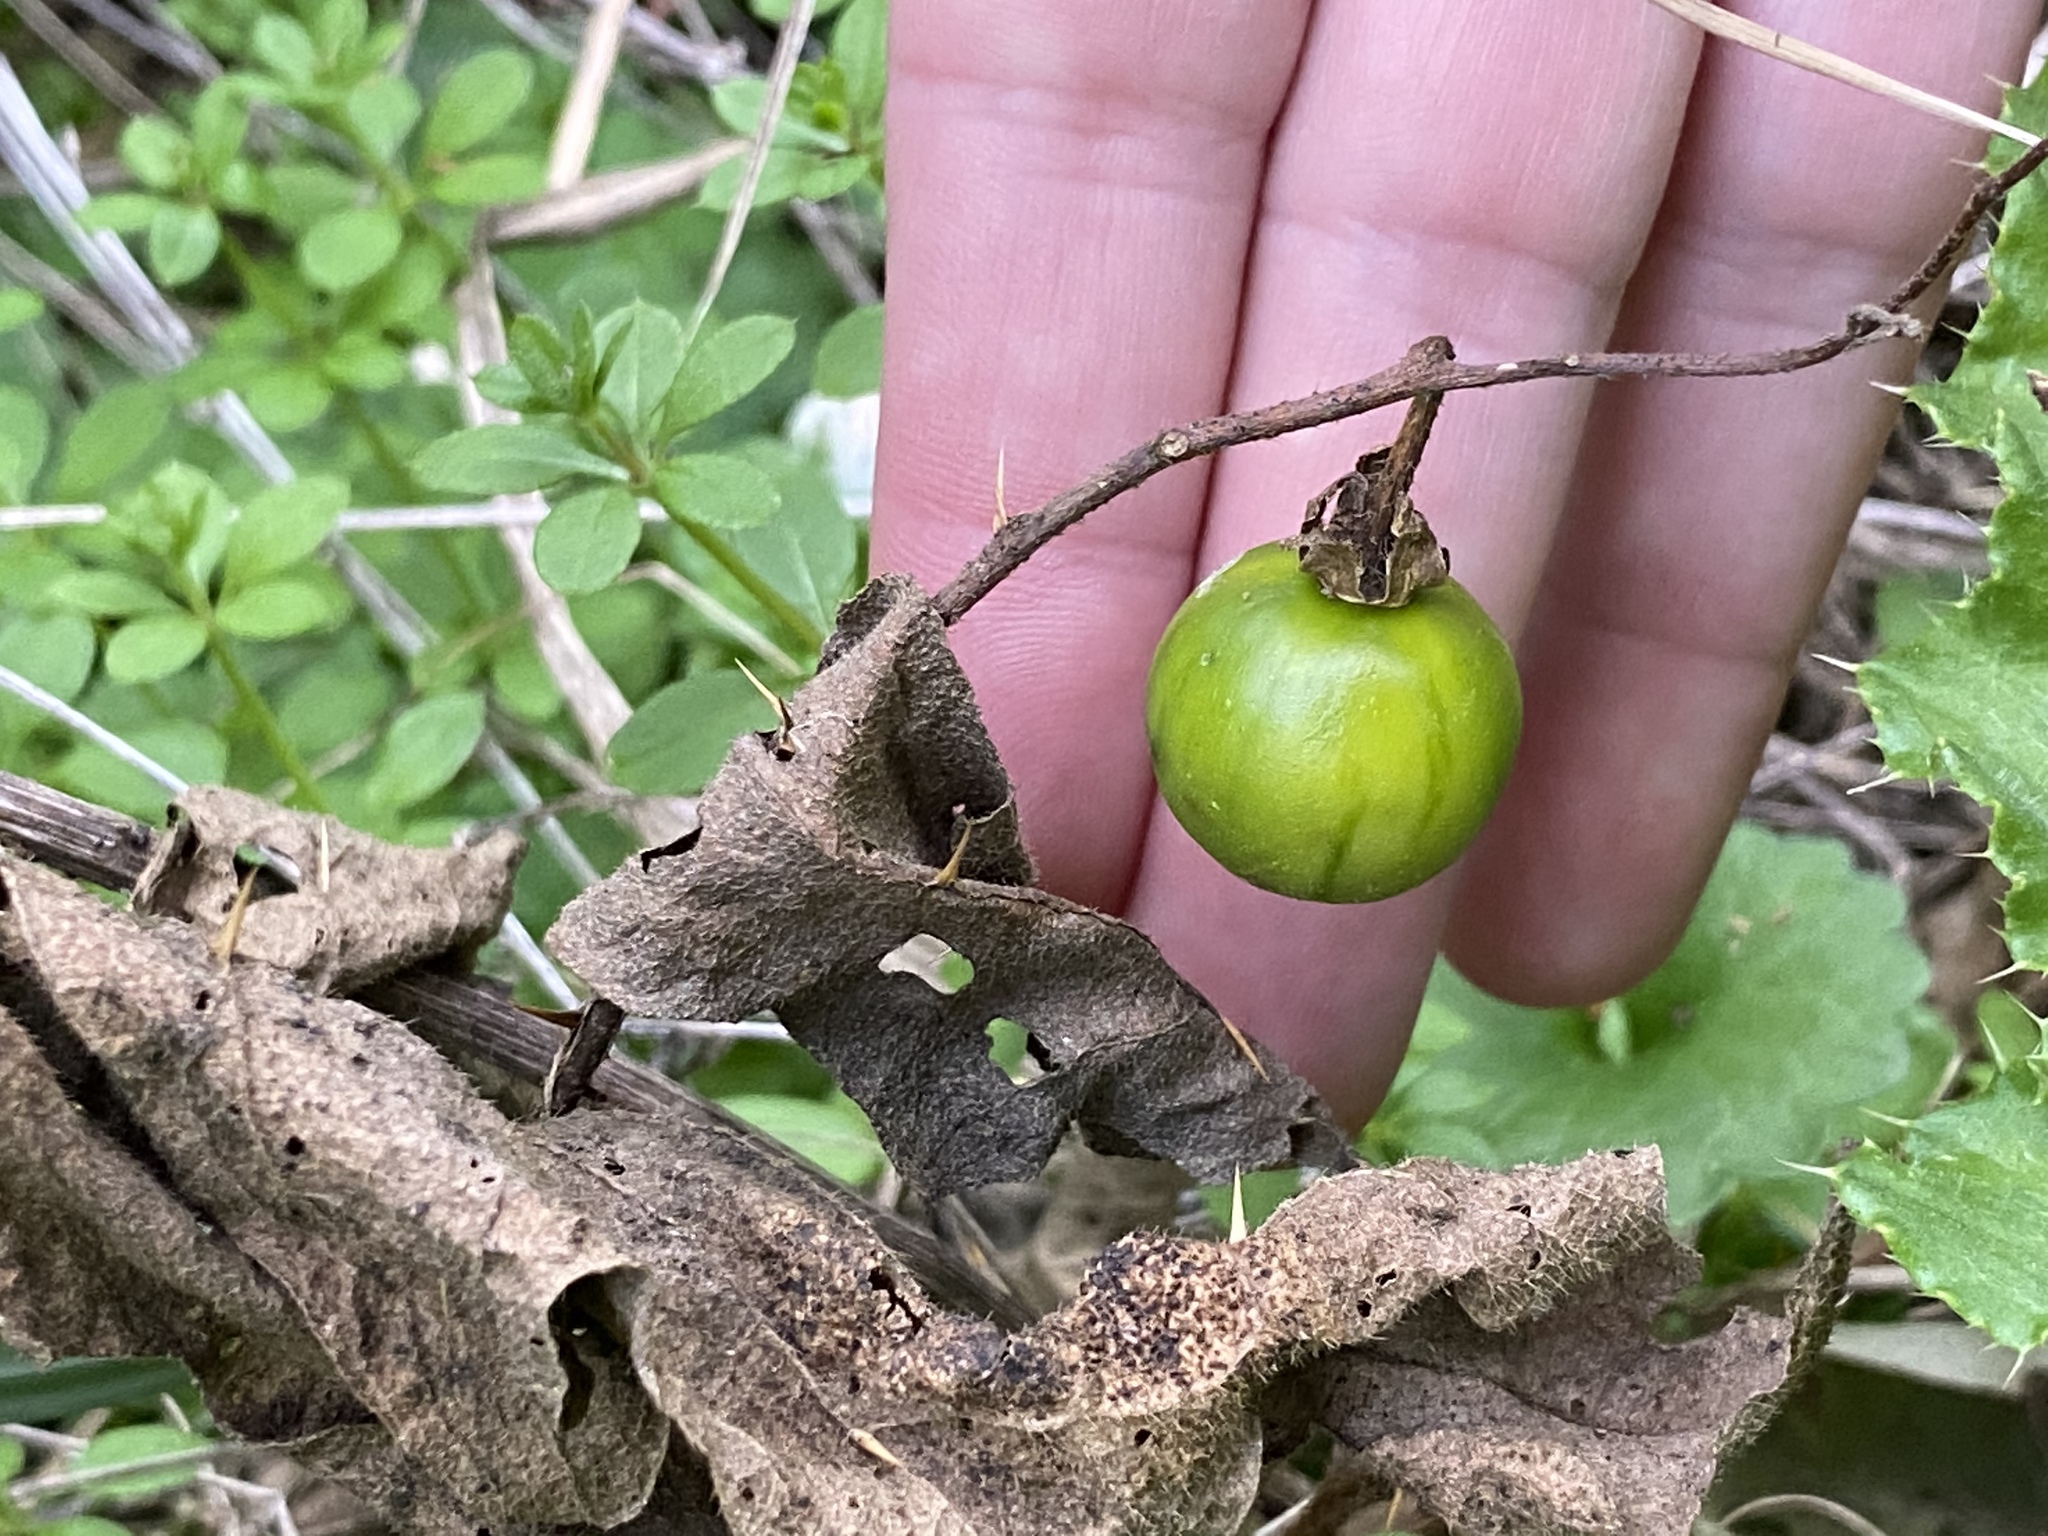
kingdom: Plantae
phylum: Tracheophyta
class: Magnoliopsida
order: Solanales
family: Solanaceae
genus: Solanum
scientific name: Solanum carolinense
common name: Horse-nettle
